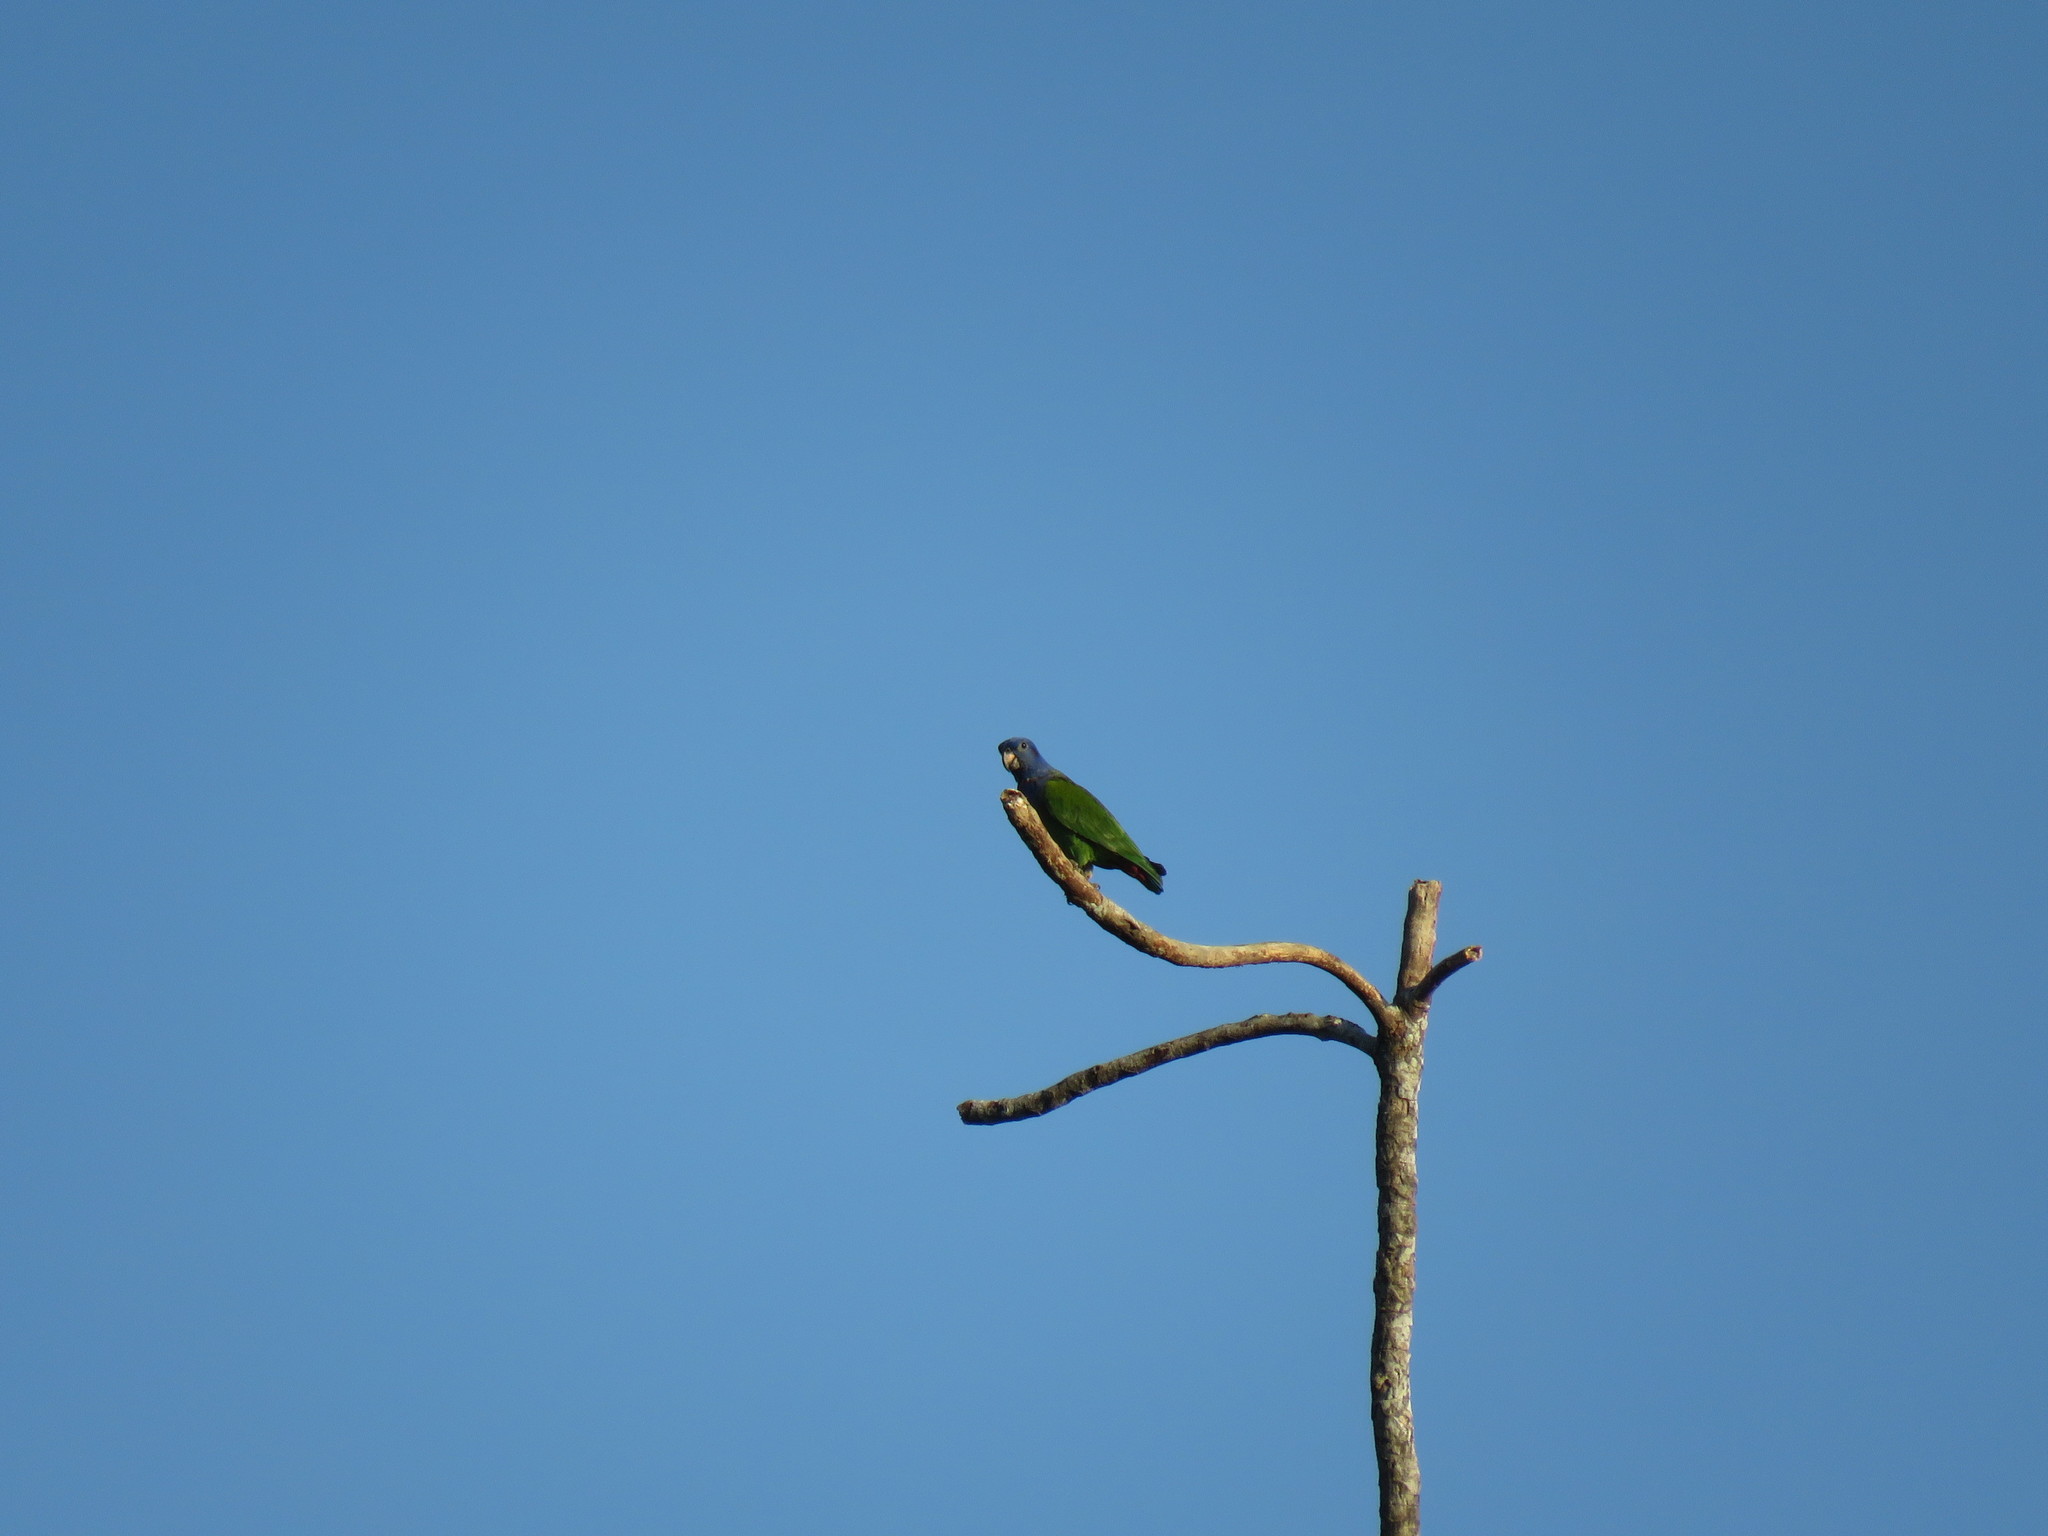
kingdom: Animalia
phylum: Chordata
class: Aves
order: Psittaciformes
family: Psittacidae
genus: Pionus
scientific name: Pionus menstruus
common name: Blue-headed parrot
